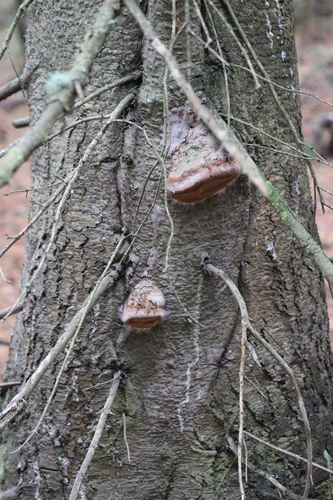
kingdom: Fungi
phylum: Basidiomycota
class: Agaricomycetes
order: Hymenochaetales
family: Hymenochaetaceae
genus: Phellinus
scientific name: Phellinus hartigii
